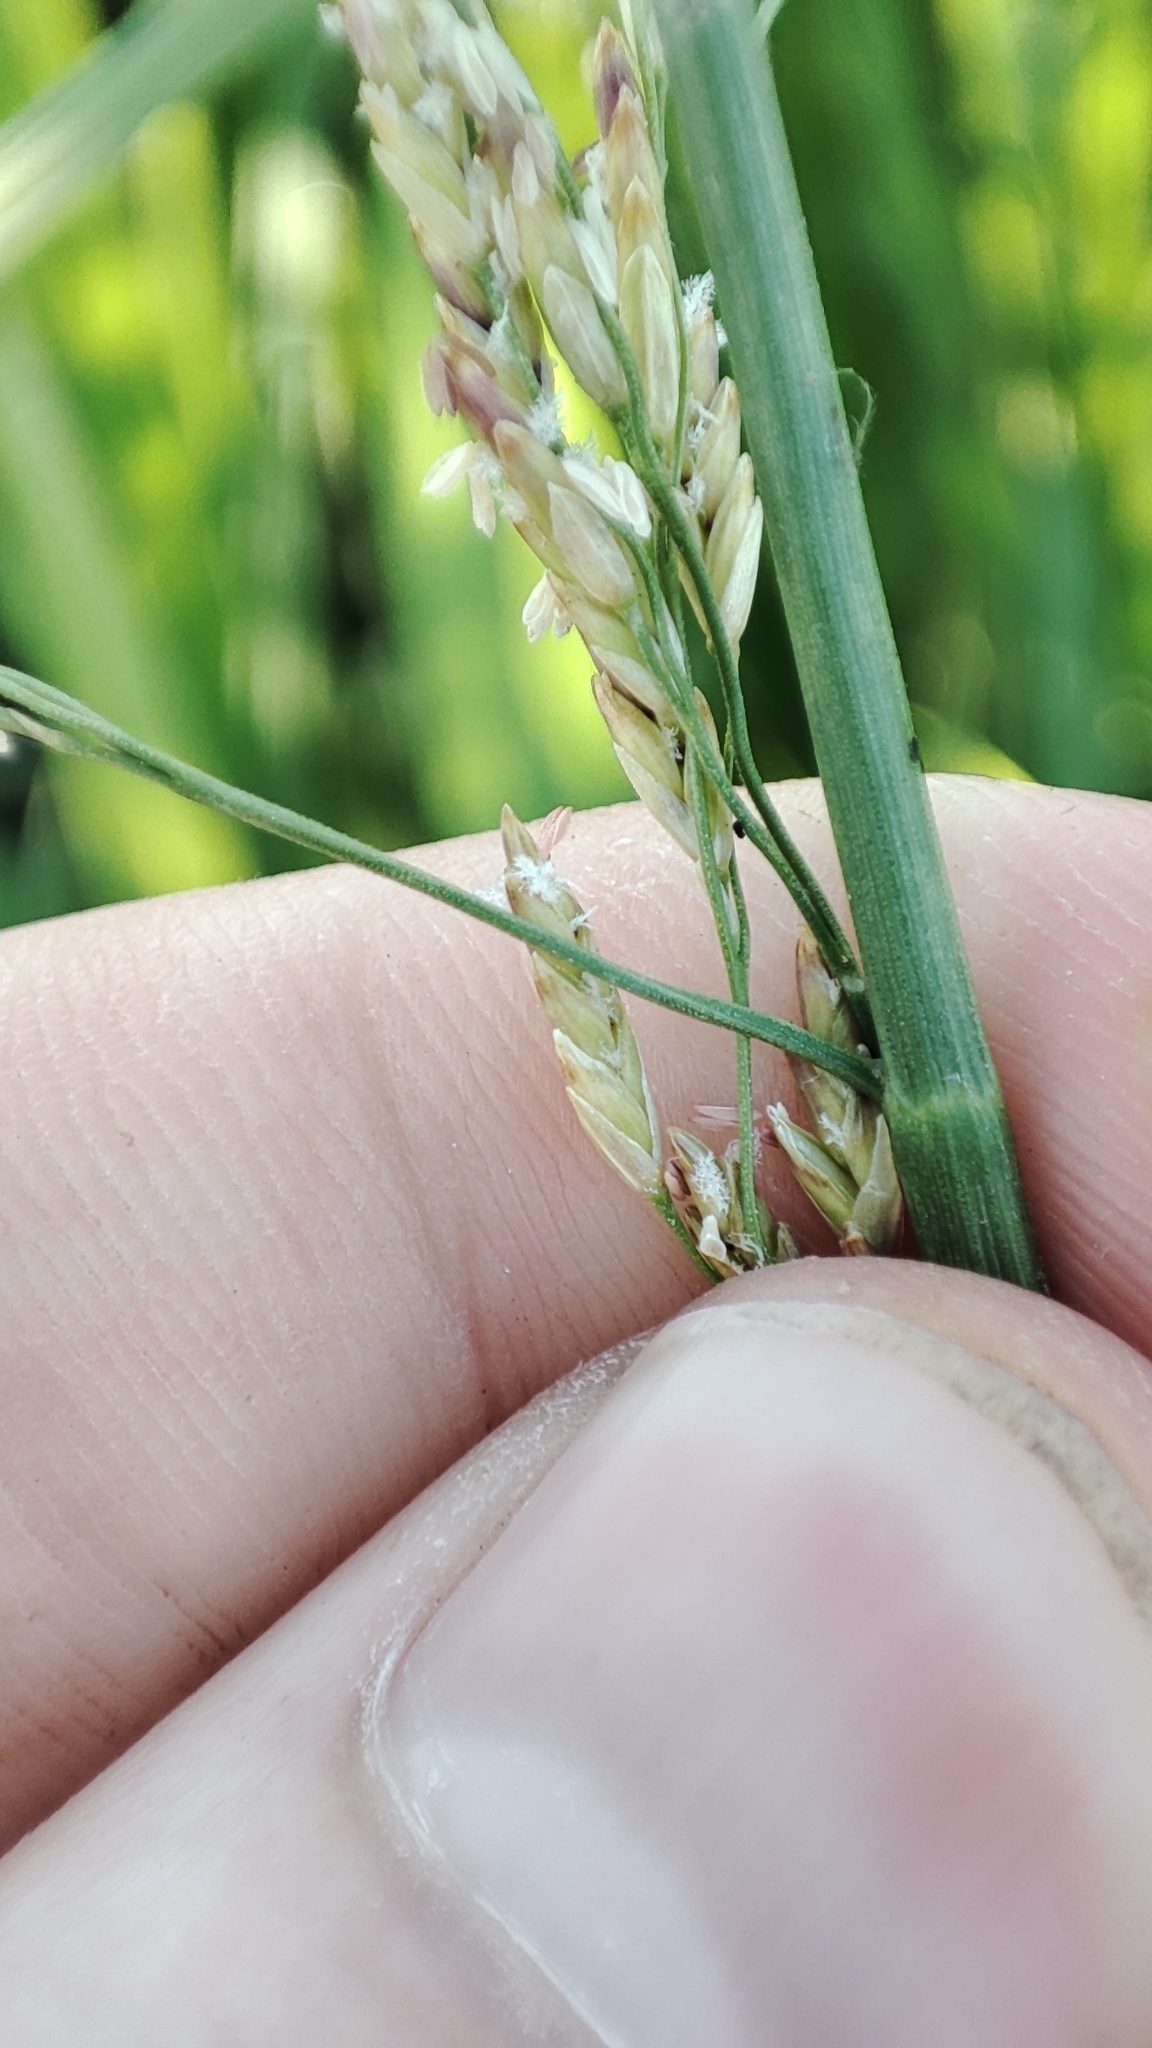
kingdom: Plantae
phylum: Tracheophyta
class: Liliopsida
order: Poales
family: Poaceae
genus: Glyceria
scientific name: Glyceria maxima
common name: Reed mannagrass
